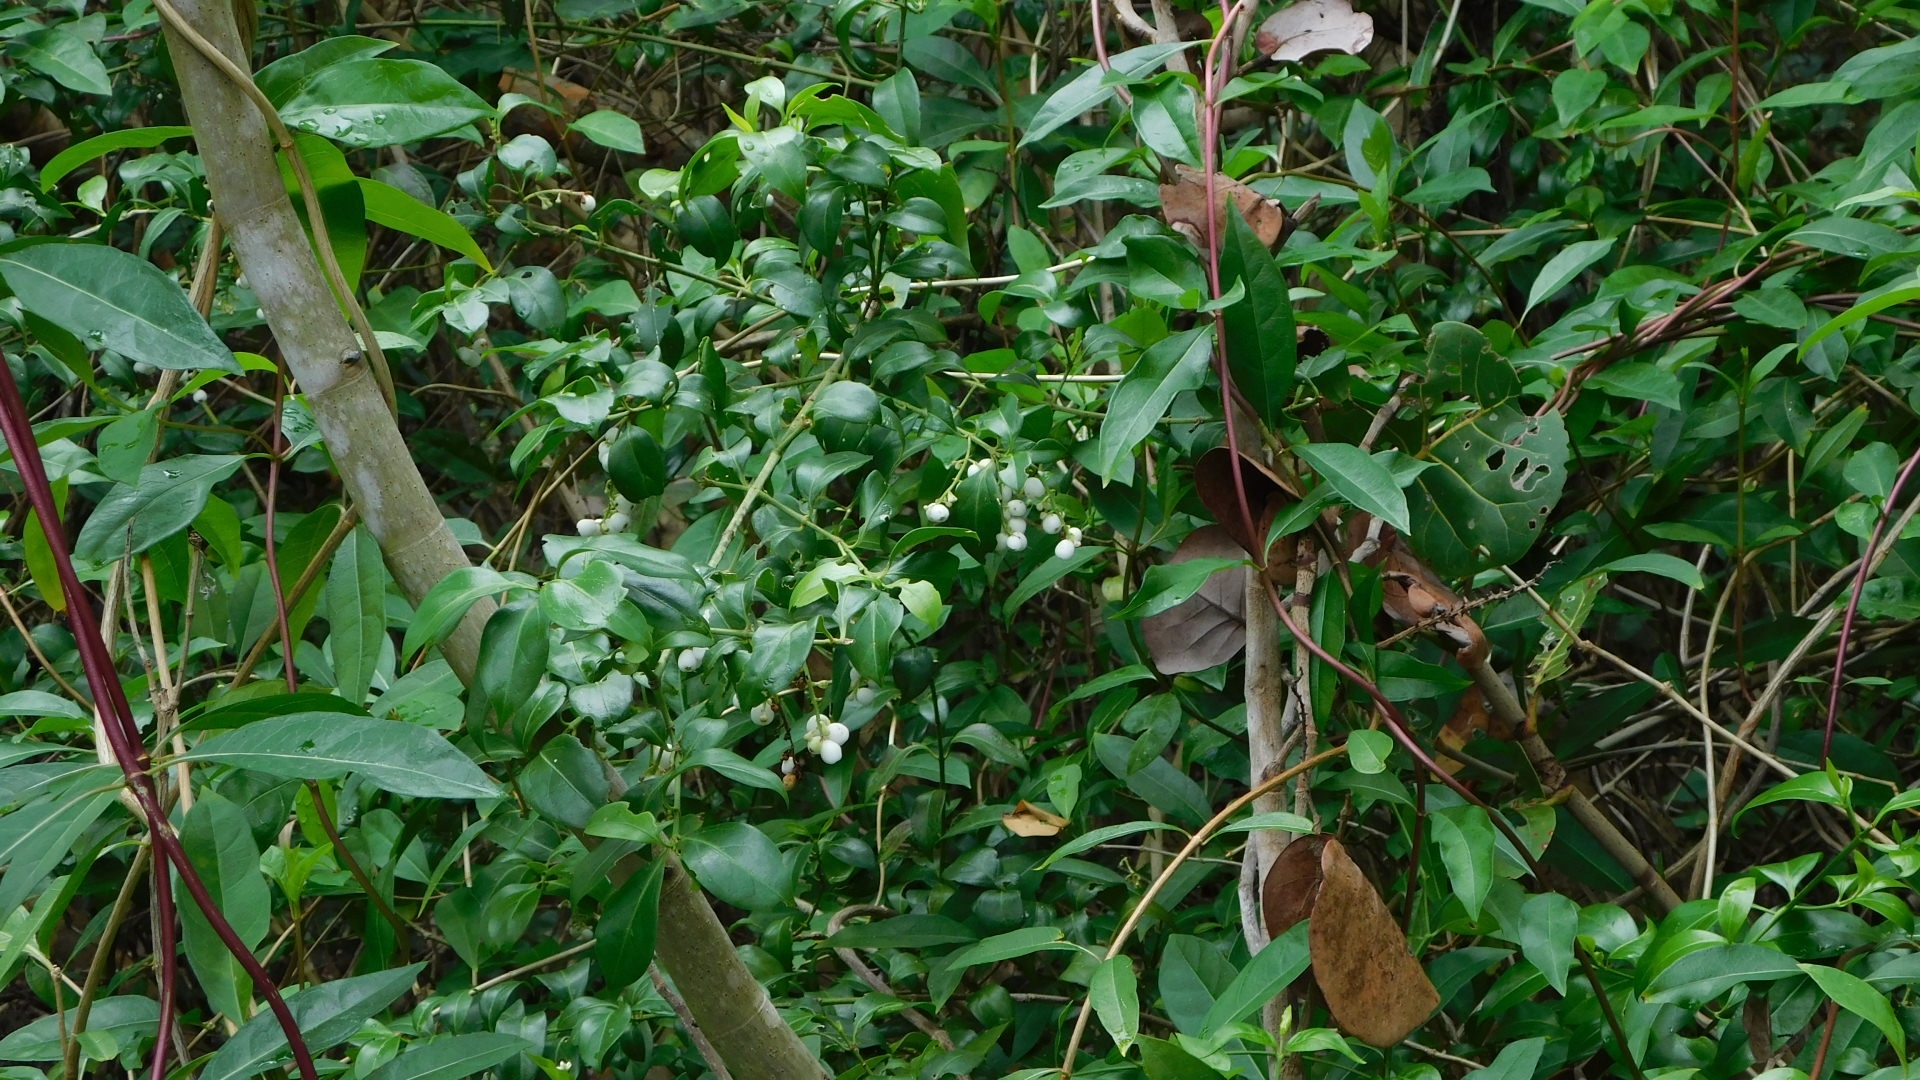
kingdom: Plantae
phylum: Tracheophyta
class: Magnoliopsida
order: Gentianales
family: Rubiaceae
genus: Chiococca
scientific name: Chiococca alba
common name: Snowberry
